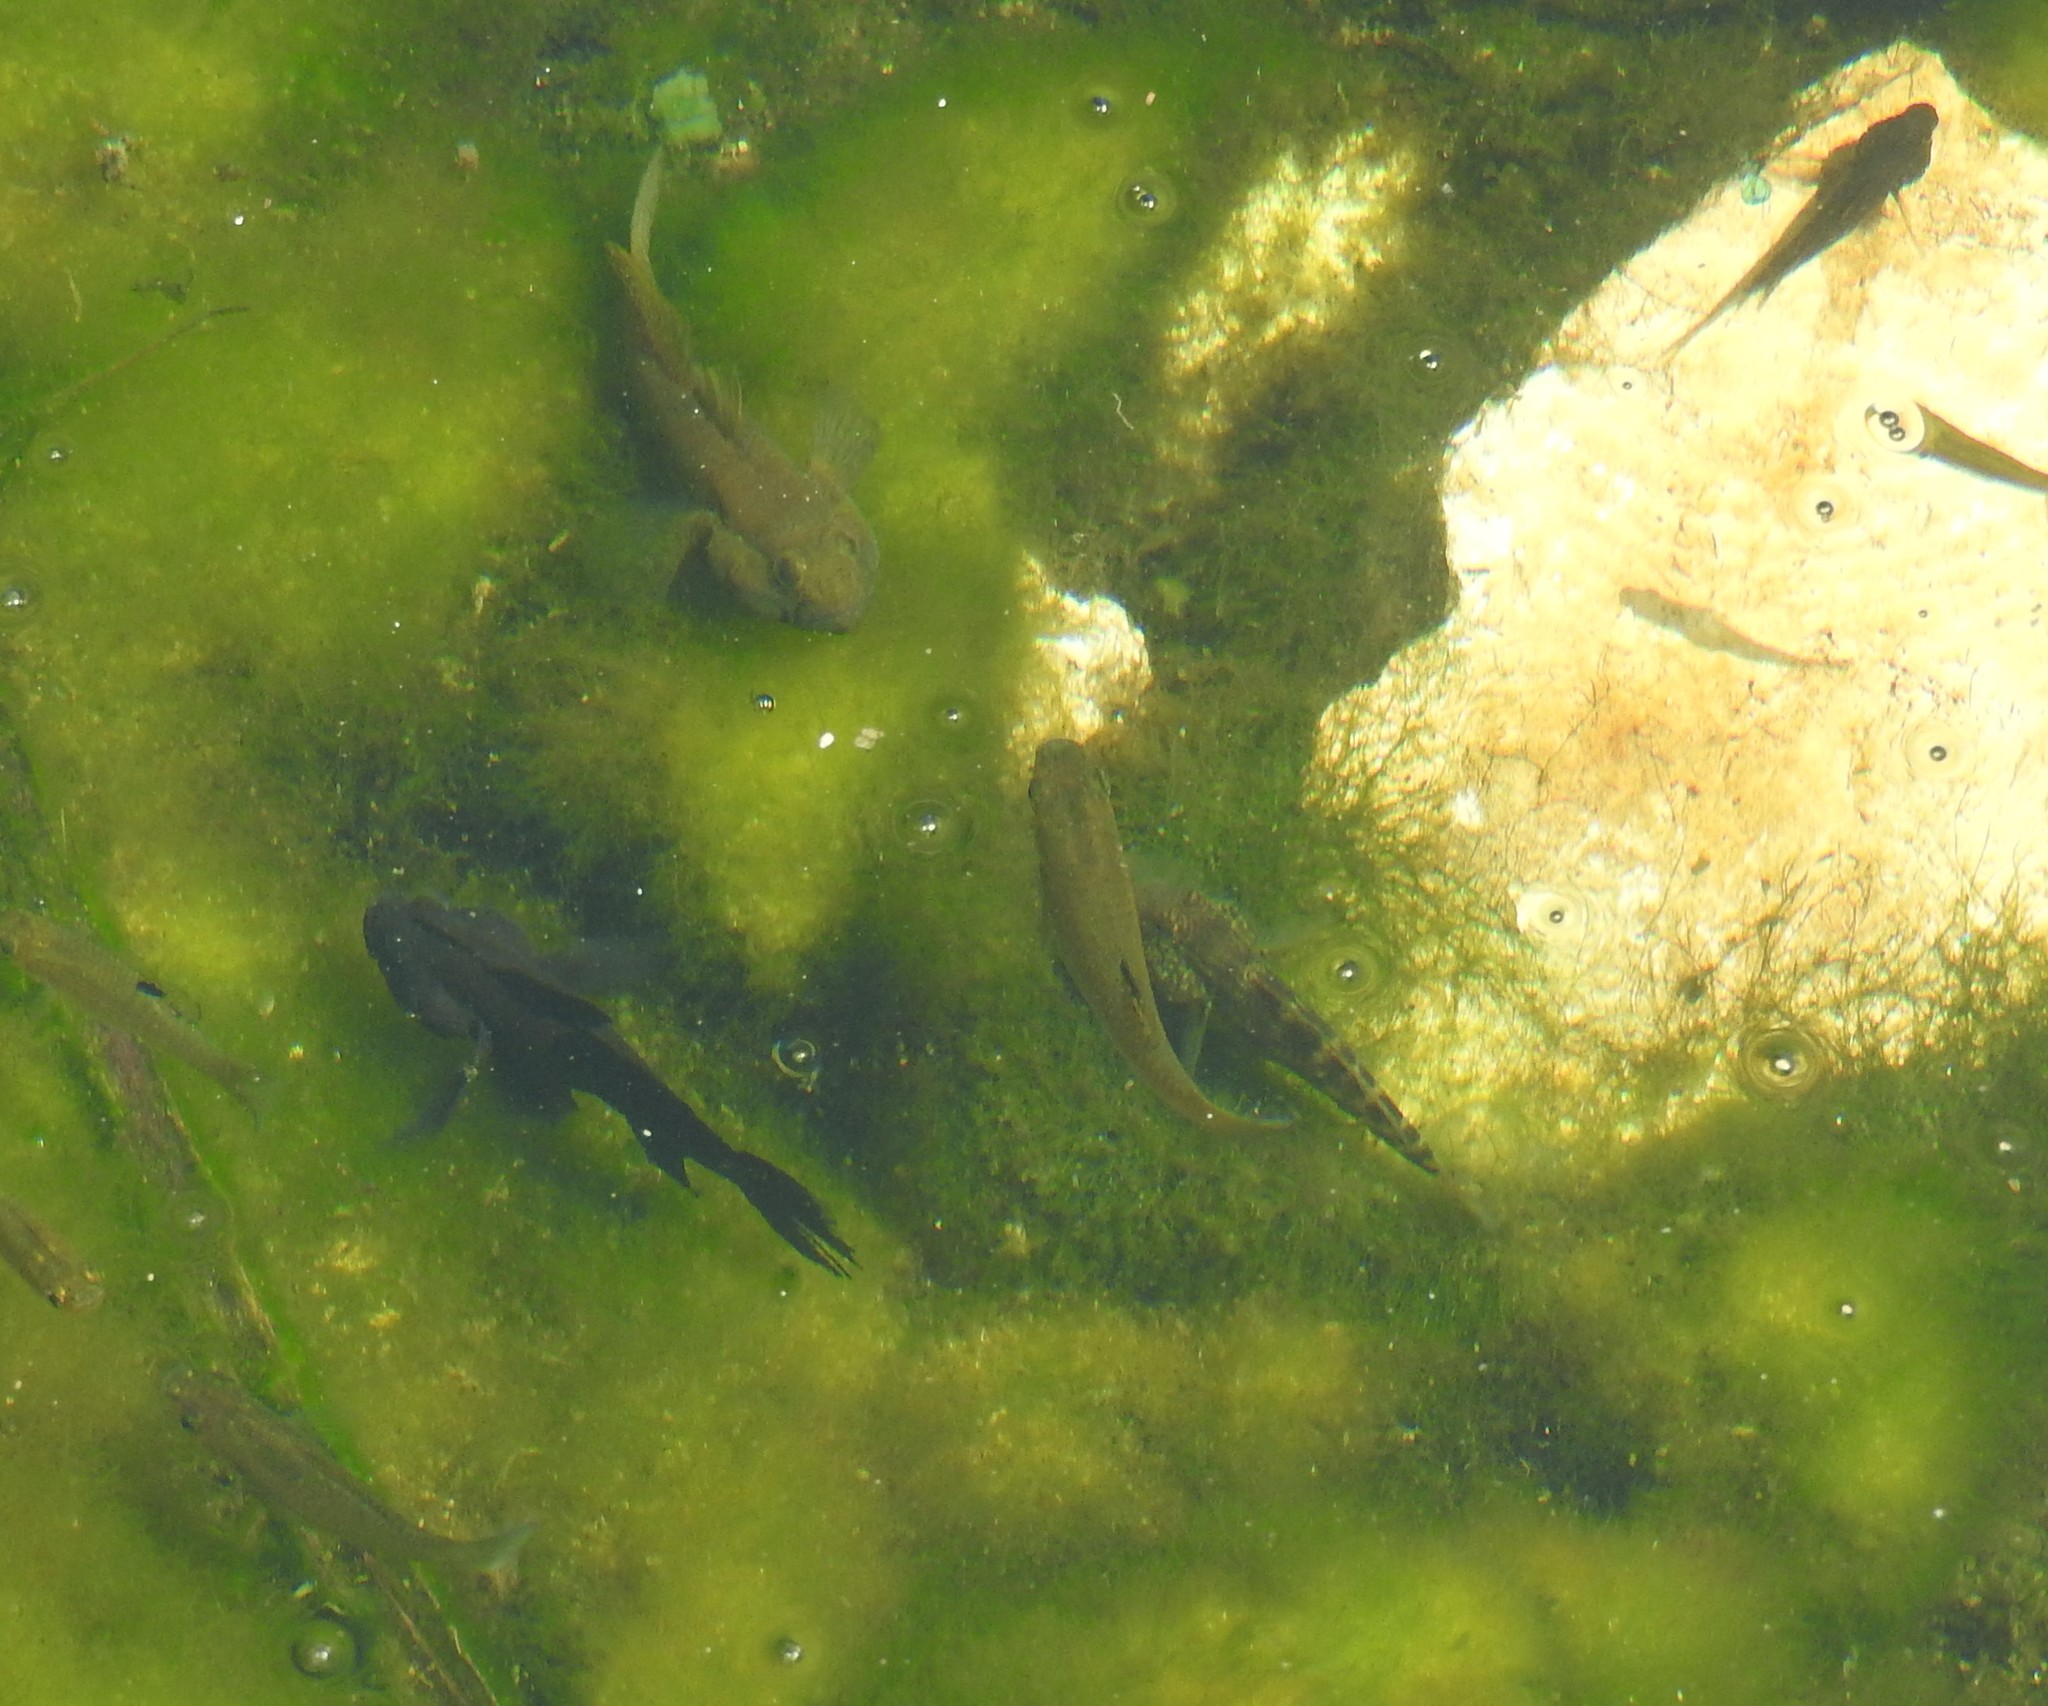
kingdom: Animalia
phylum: Chordata
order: Perciformes
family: Labrisomidae
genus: Labrisomus
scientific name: Labrisomus nuchipinnis
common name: Hairy blenny
